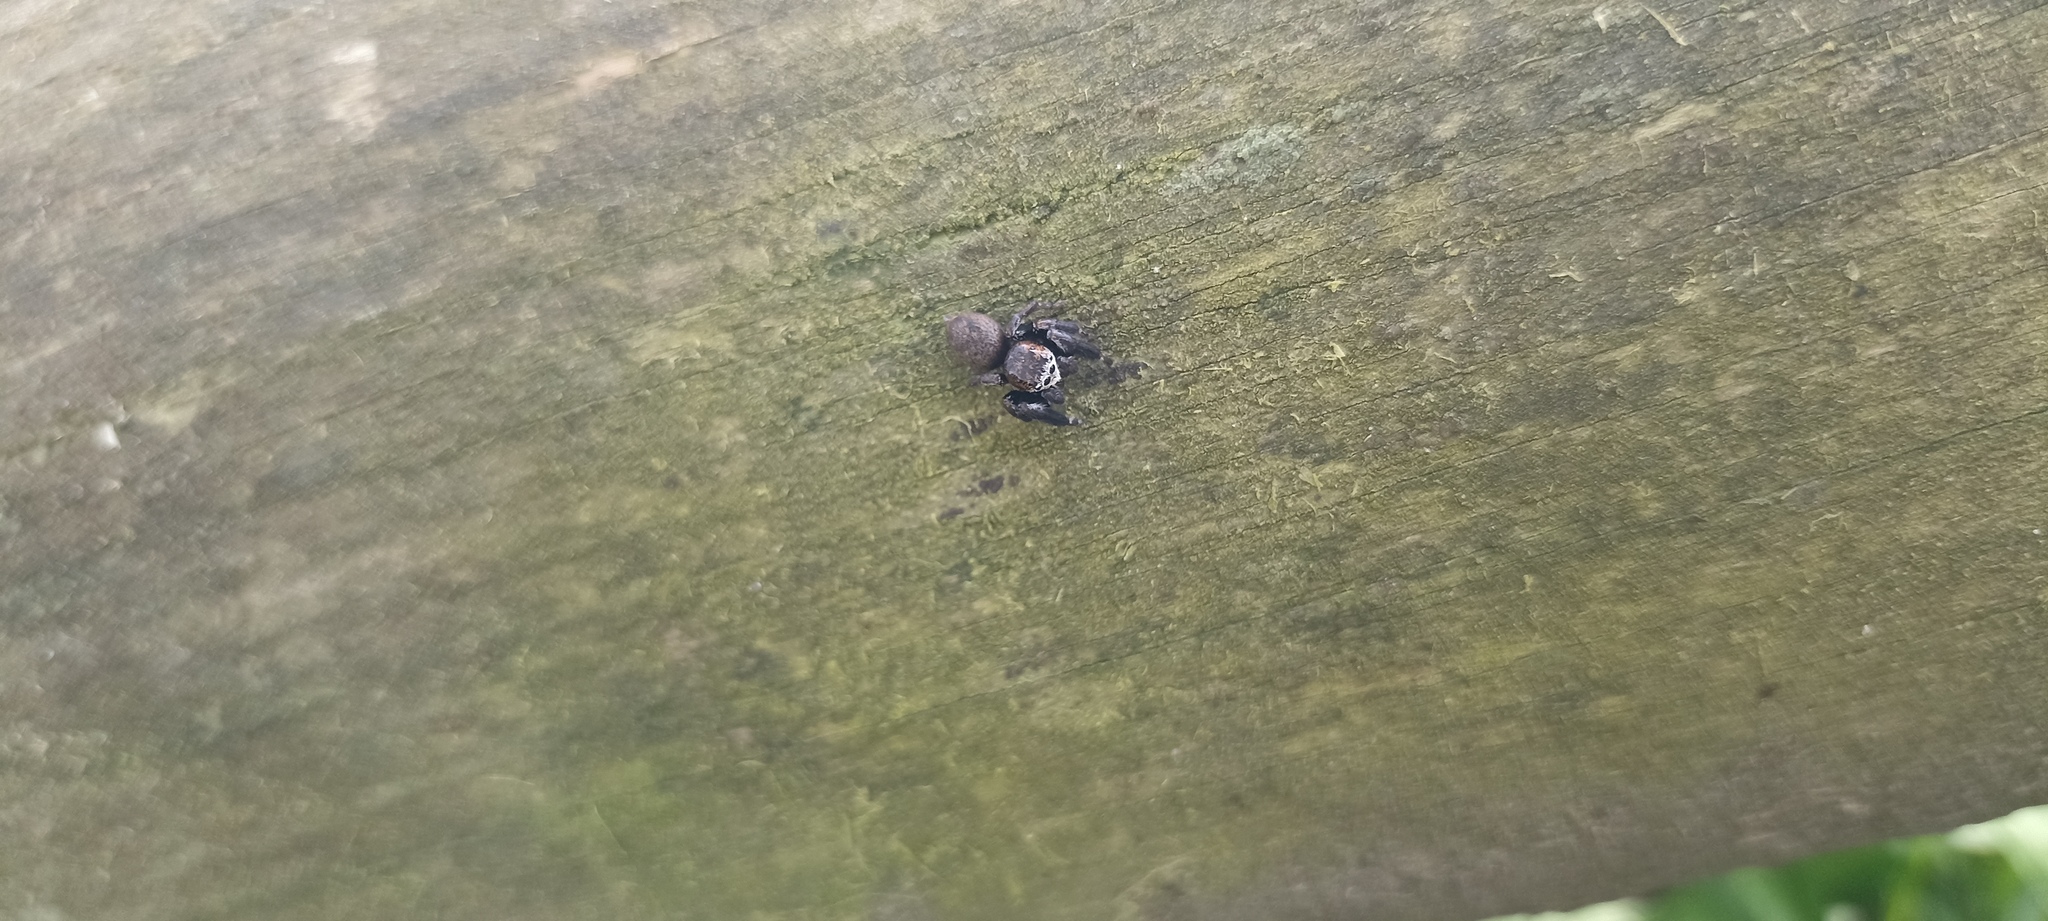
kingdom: Animalia
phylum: Arthropoda
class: Arachnida
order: Araneae
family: Salticidae
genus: Evarcha
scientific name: Evarcha arcuata
